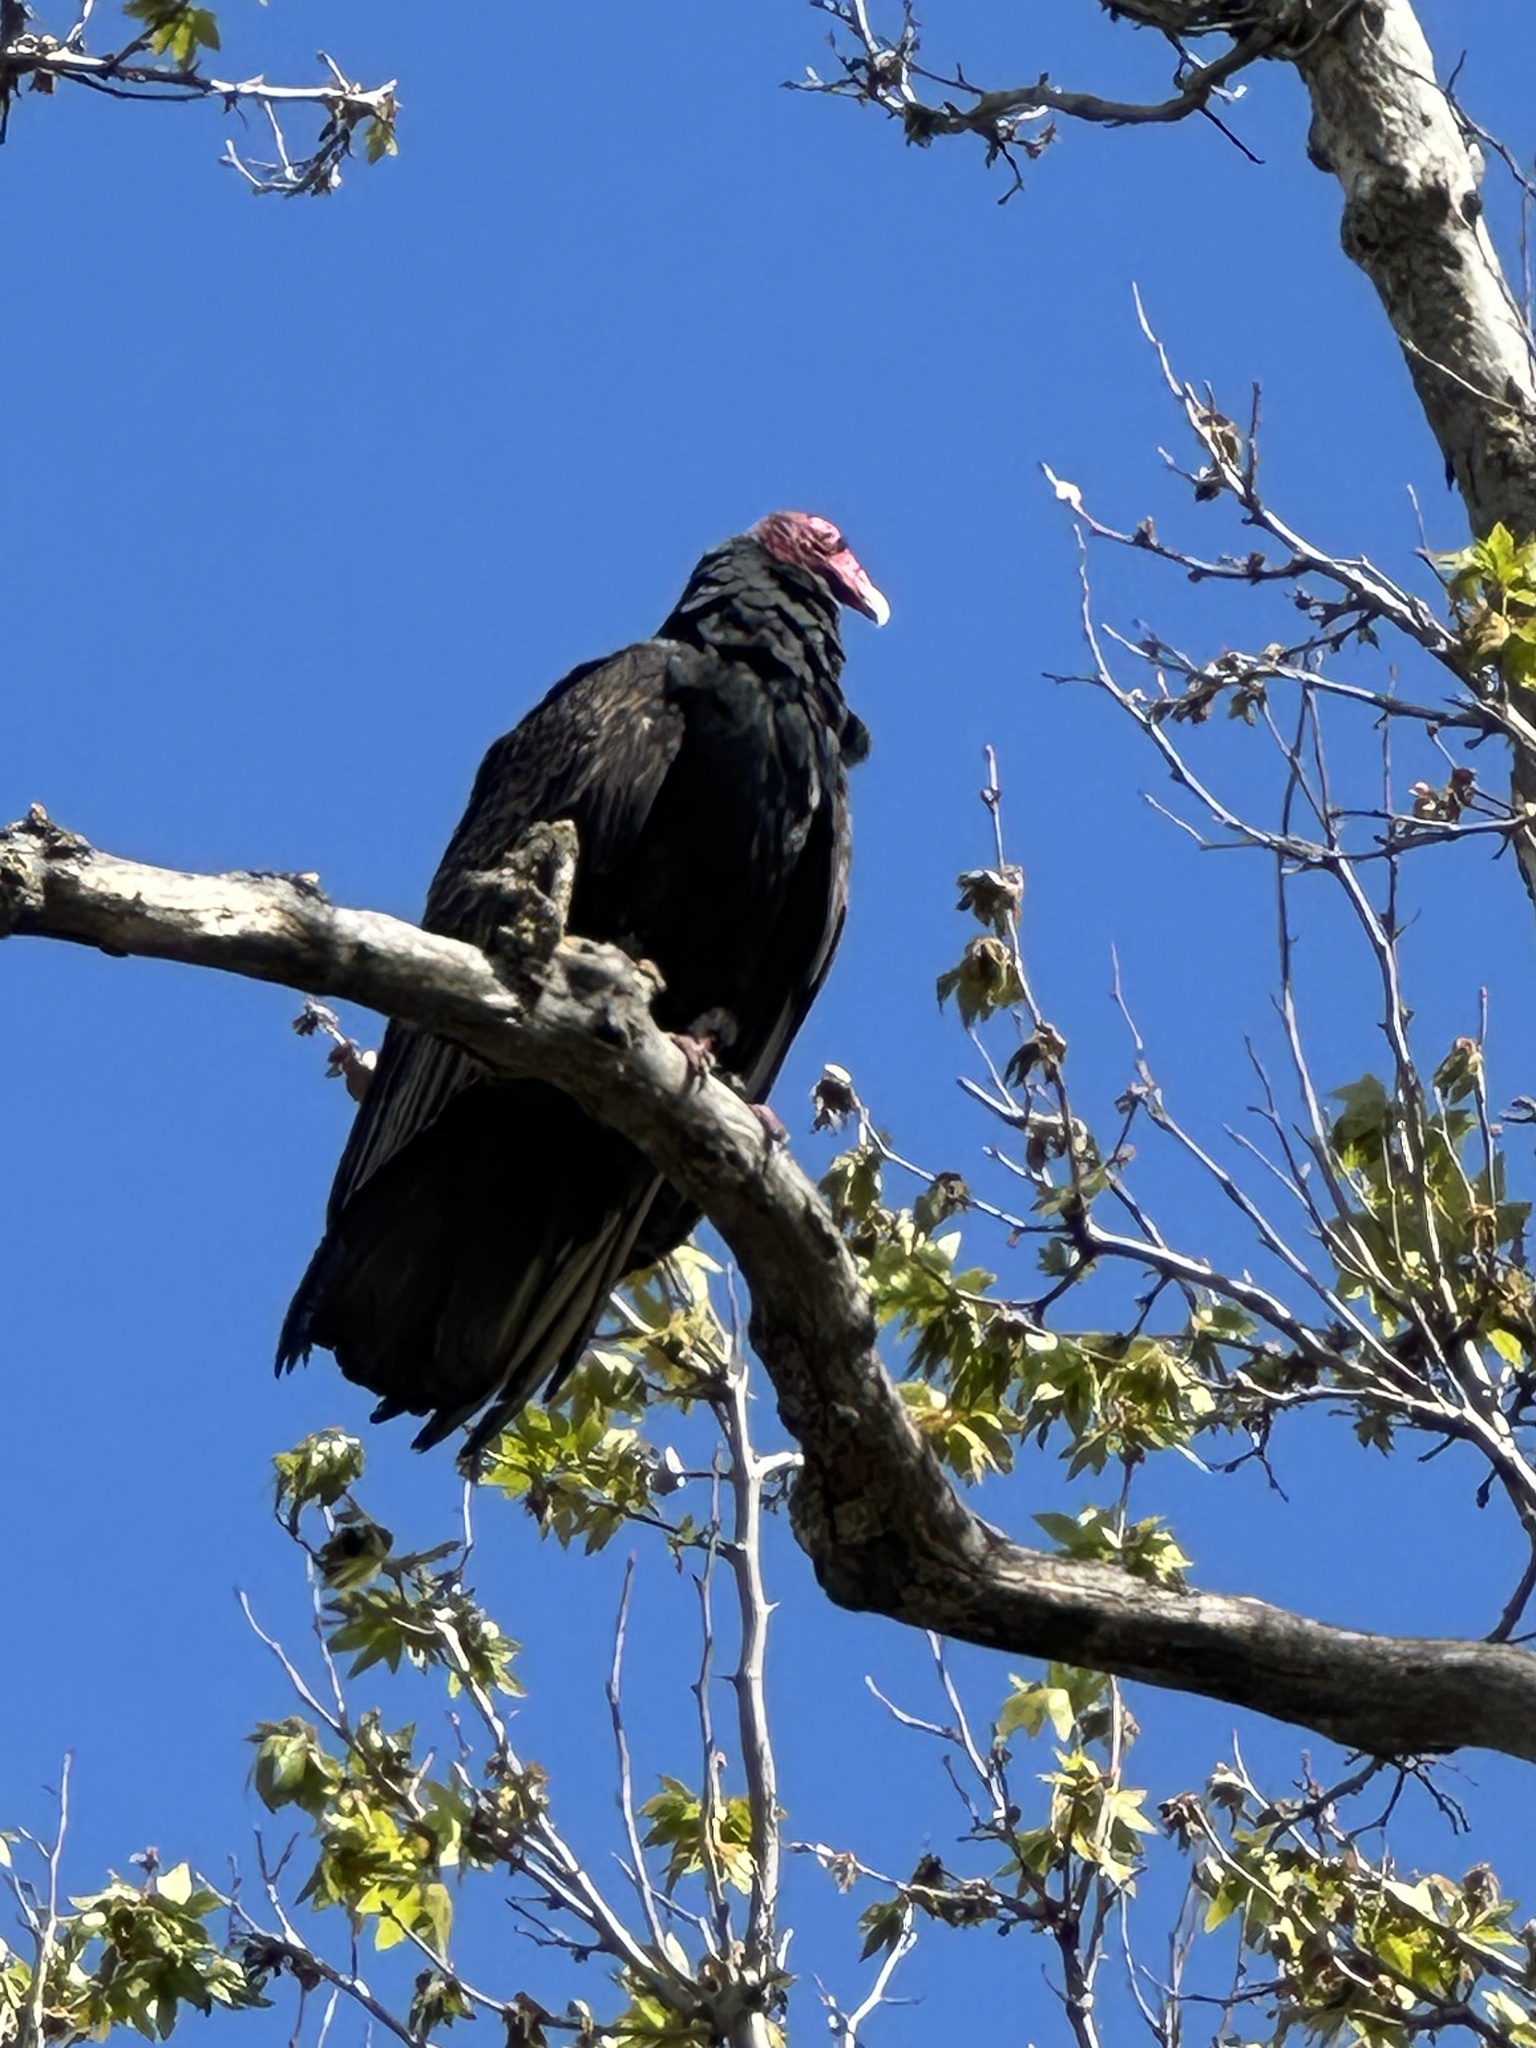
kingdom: Animalia
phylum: Chordata
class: Aves
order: Accipitriformes
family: Cathartidae
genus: Cathartes
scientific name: Cathartes aura
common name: Turkey vulture
